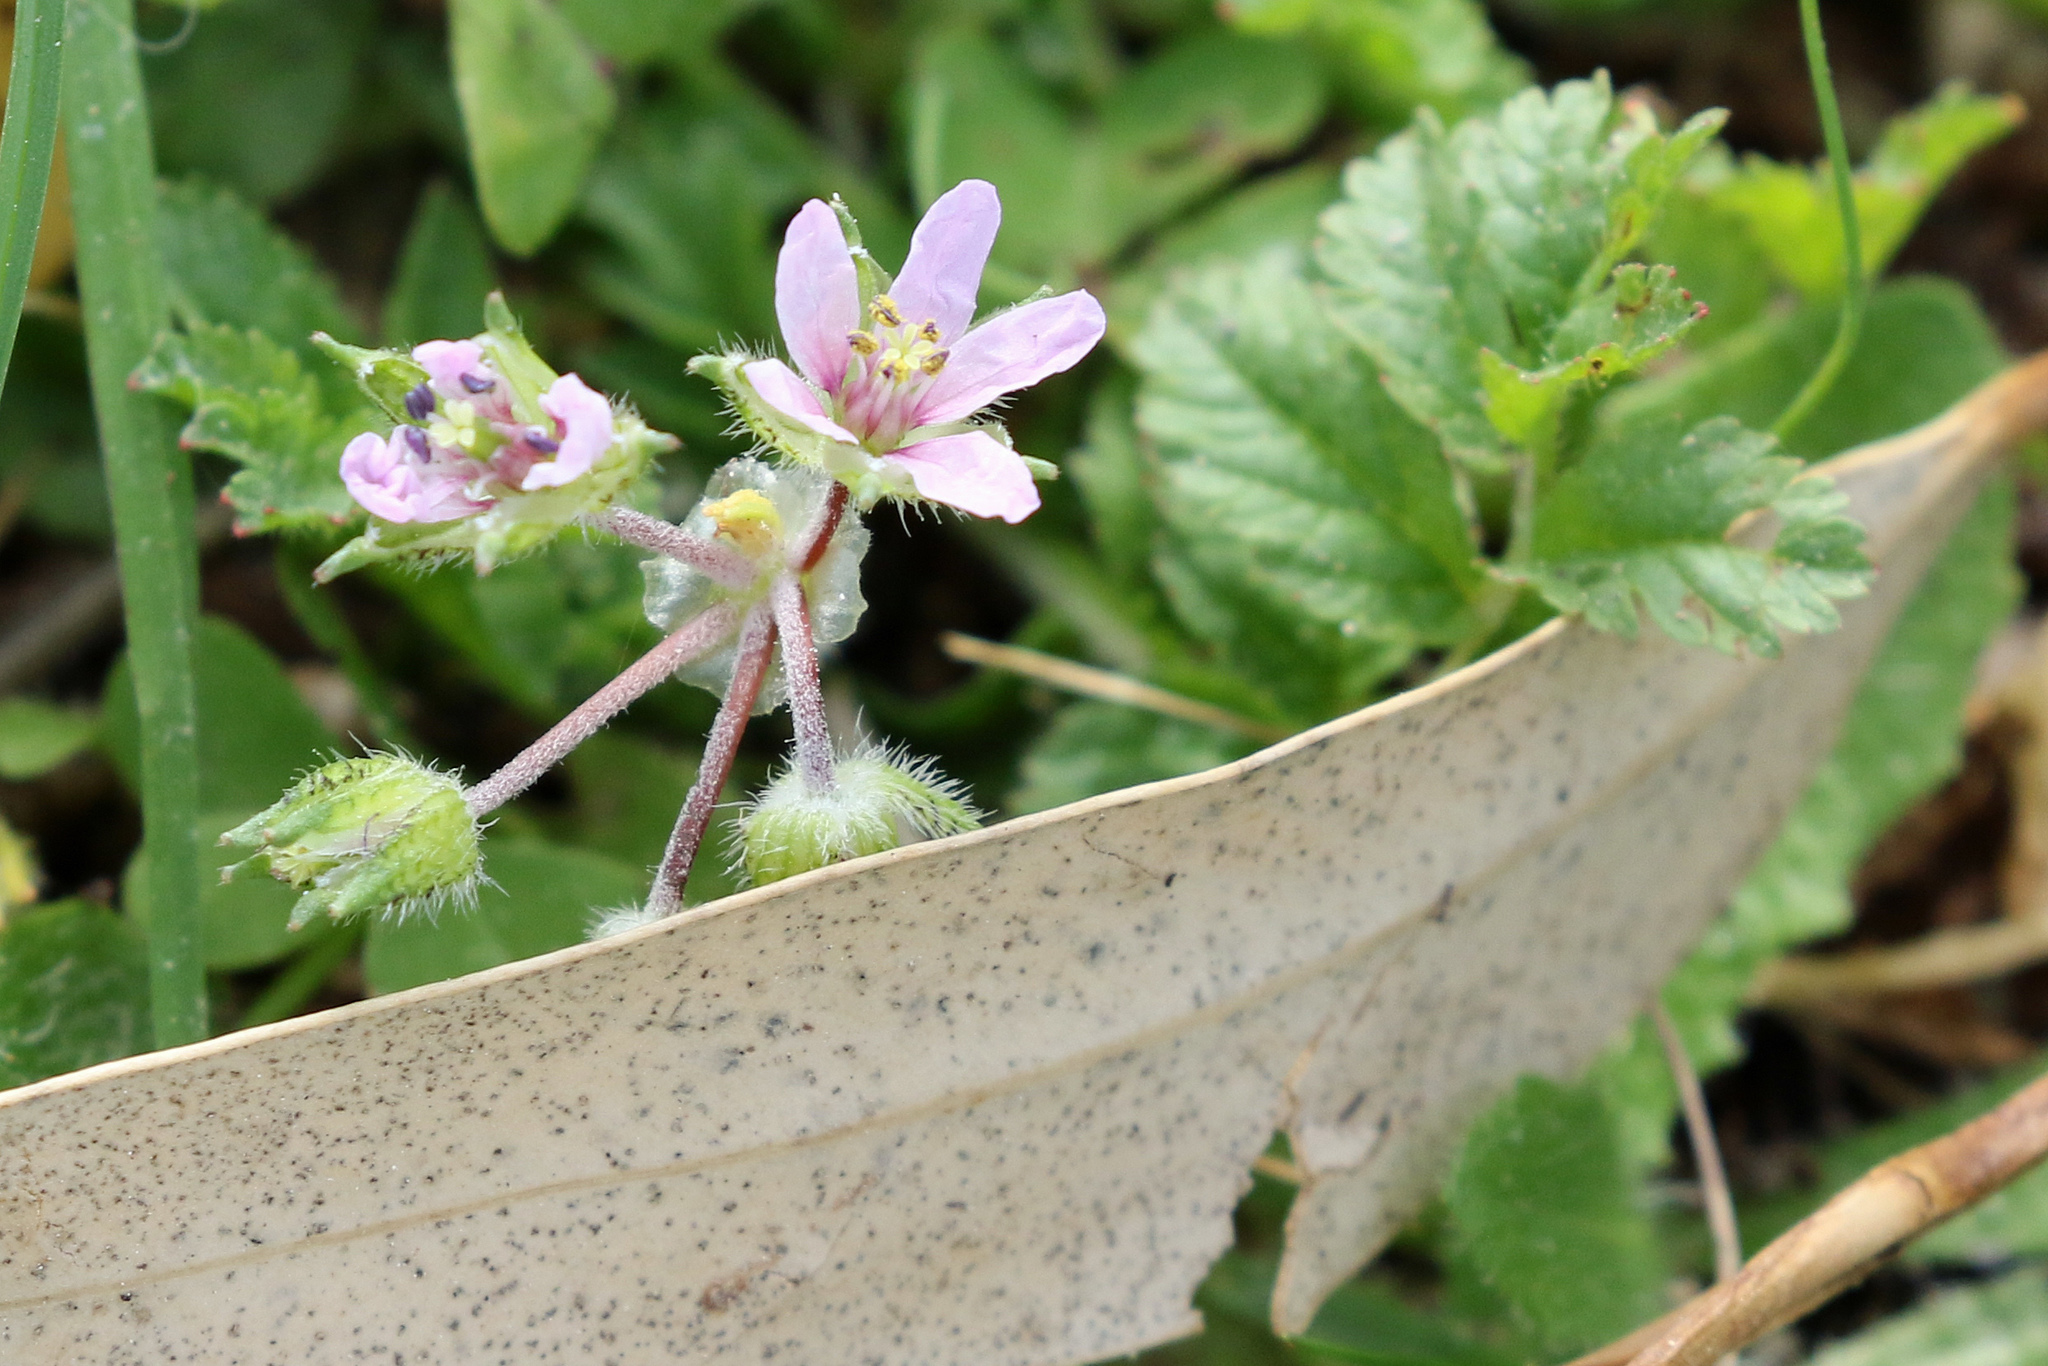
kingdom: Plantae
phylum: Tracheophyta
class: Magnoliopsida
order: Geraniales
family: Geraniaceae
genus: Erodium
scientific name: Erodium moschatum
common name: Musk stork's-bill
